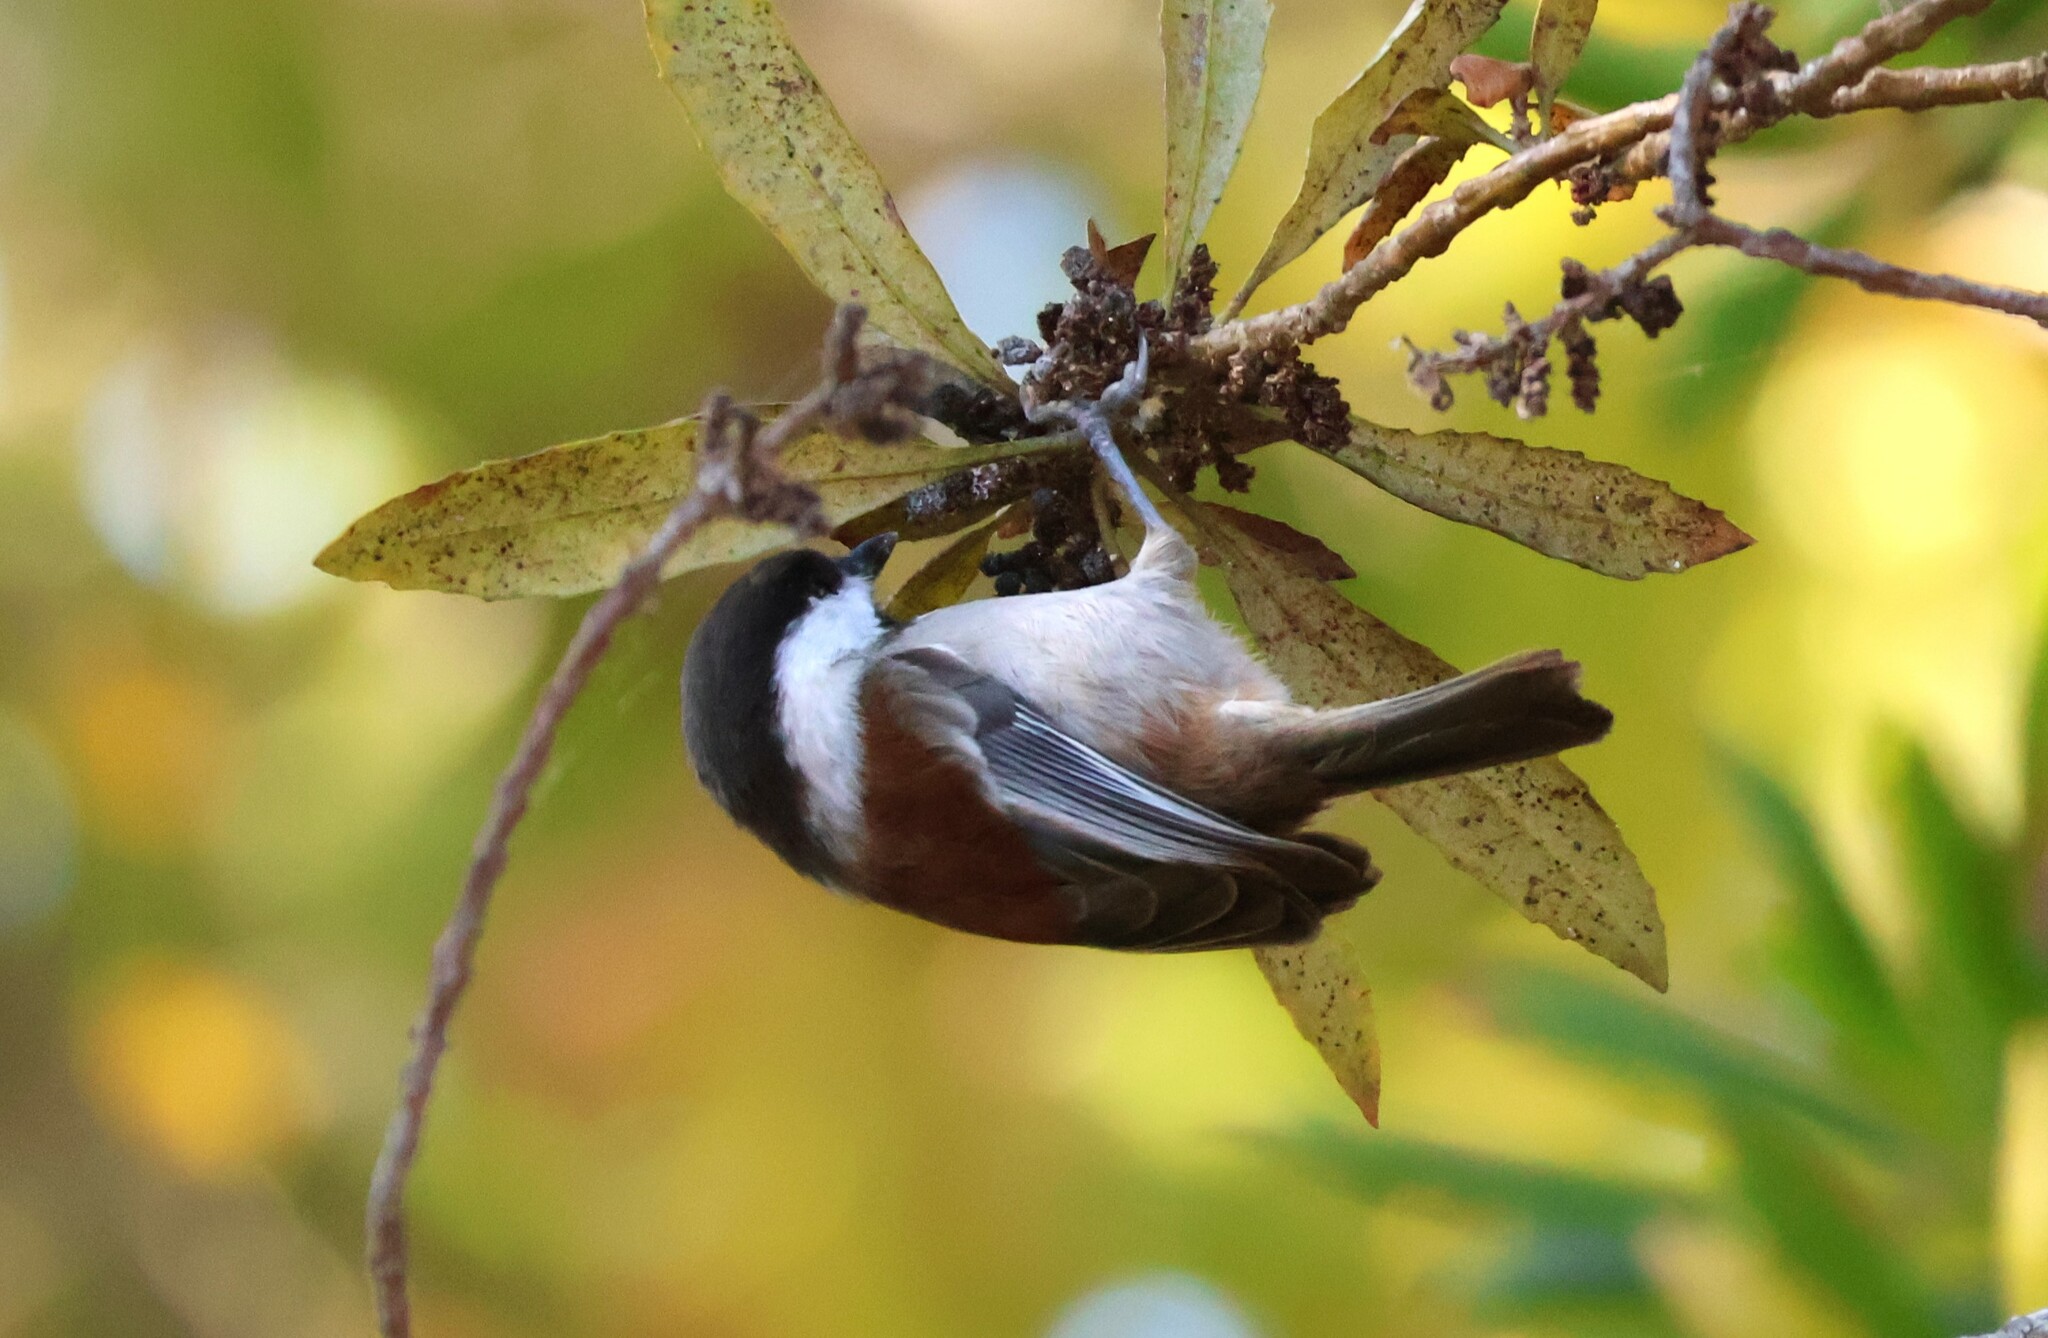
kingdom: Animalia
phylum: Chordata
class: Aves
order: Passeriformes
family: Paridae
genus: Poecile
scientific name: Poecile rufescens
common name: Chestnut-backed chickadee
